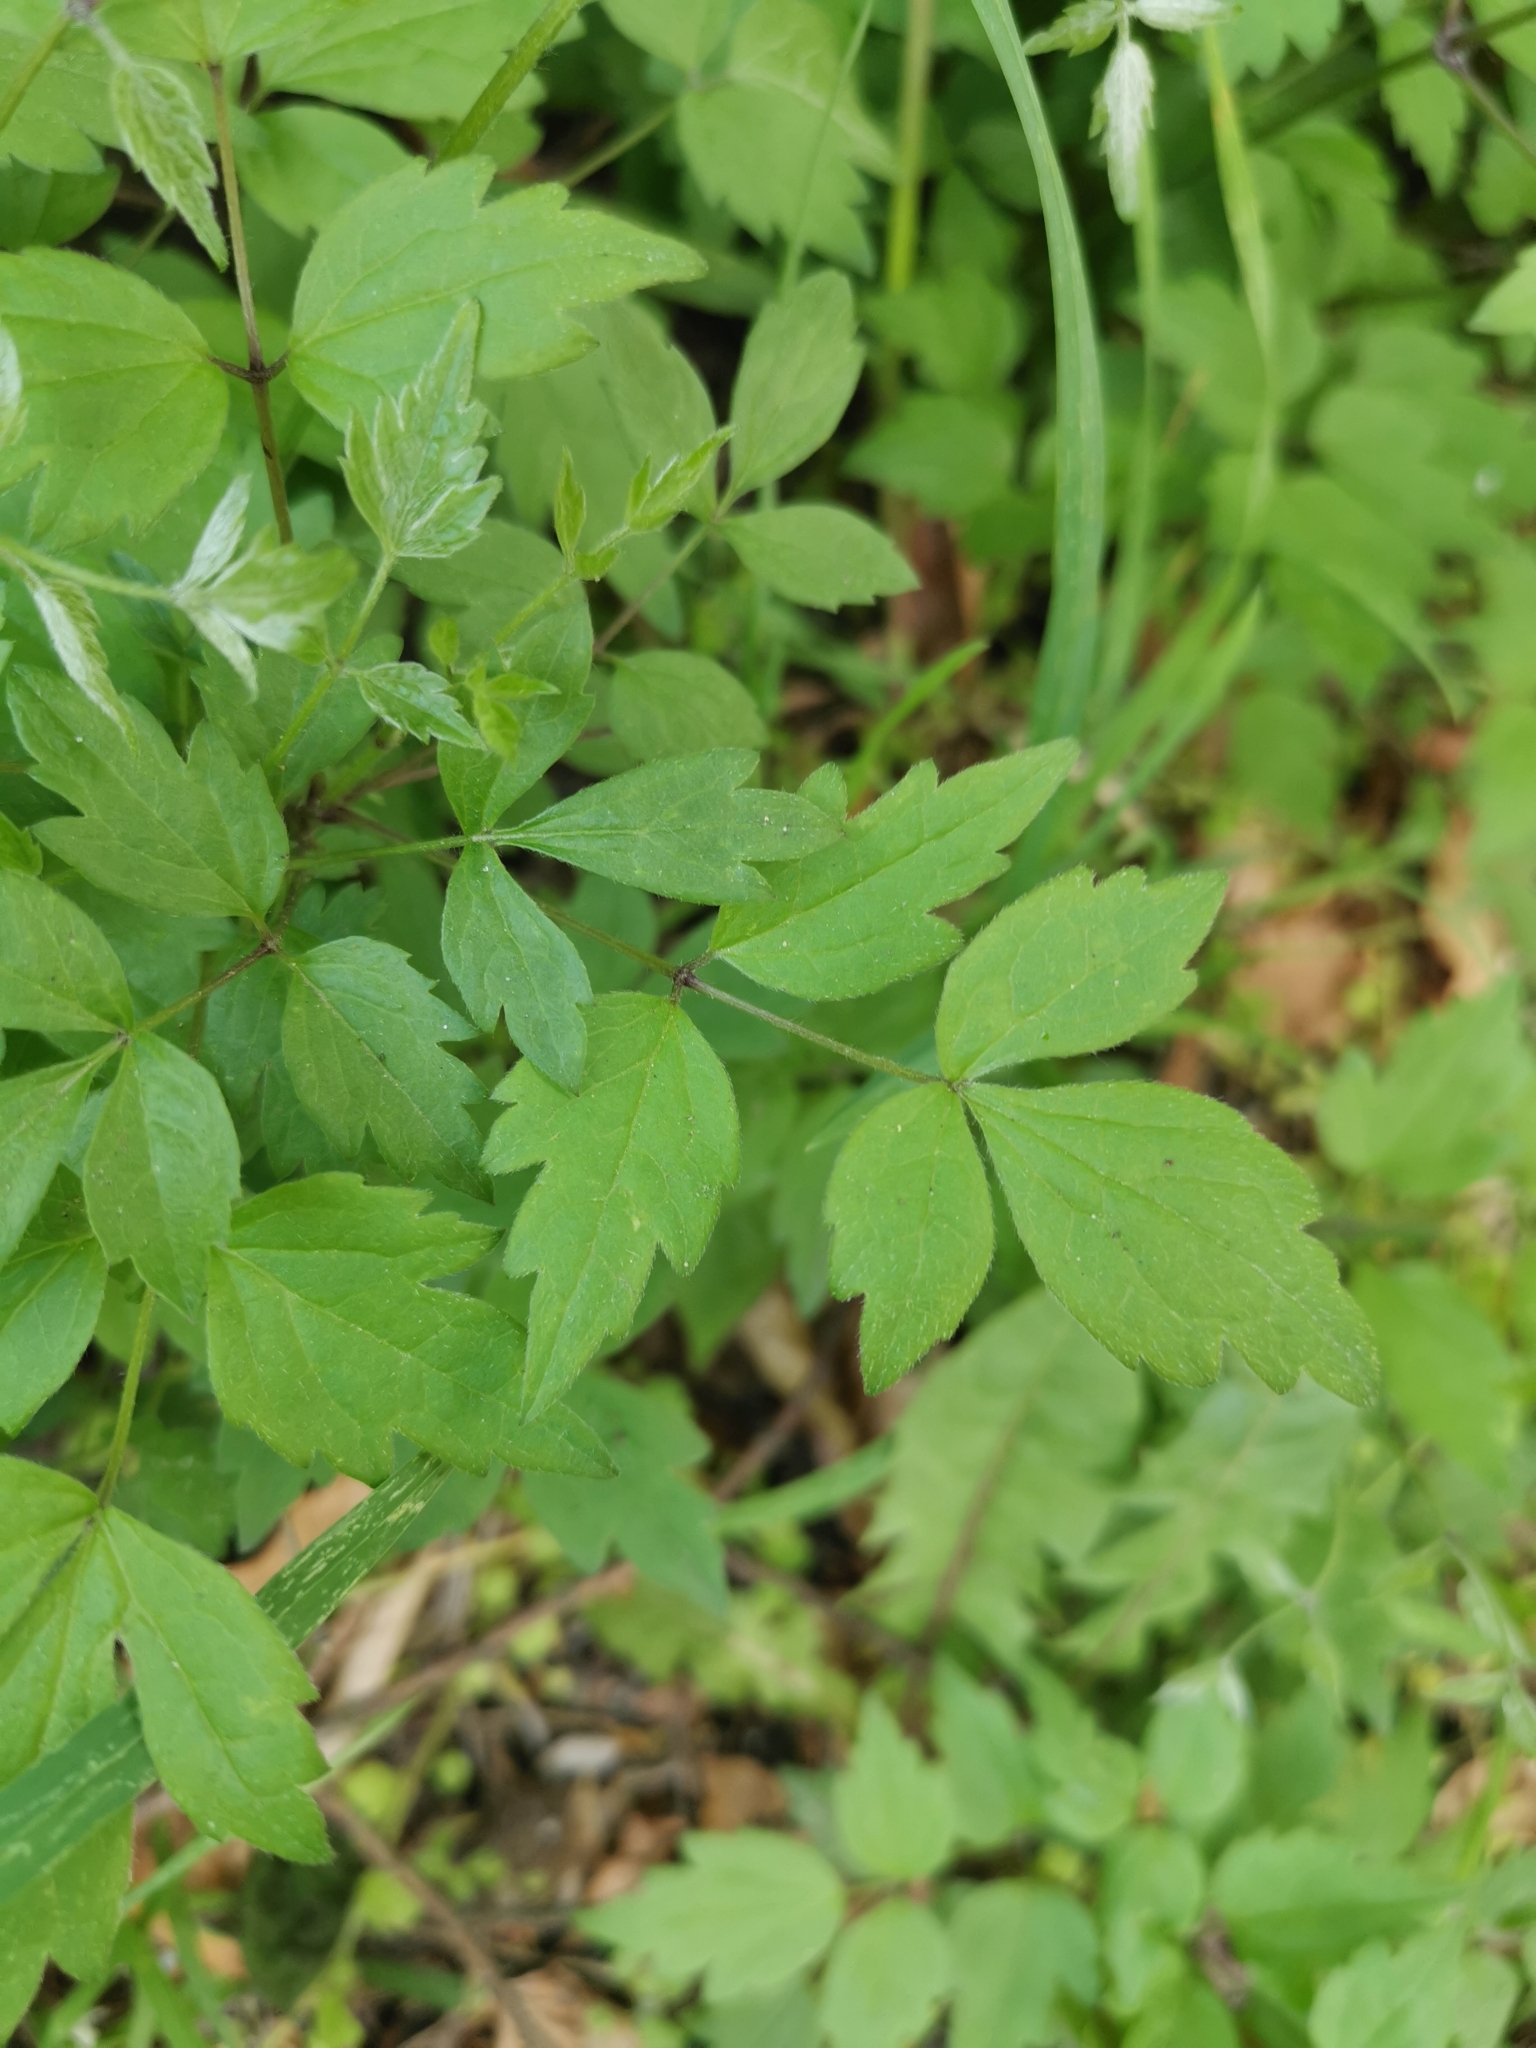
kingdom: Plantae
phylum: Tracheophyta
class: Magnoliopsida
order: Ranunculales
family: Ranunculaceae
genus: Clematis
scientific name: Clematis vitalba
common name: Evergreen clematis
